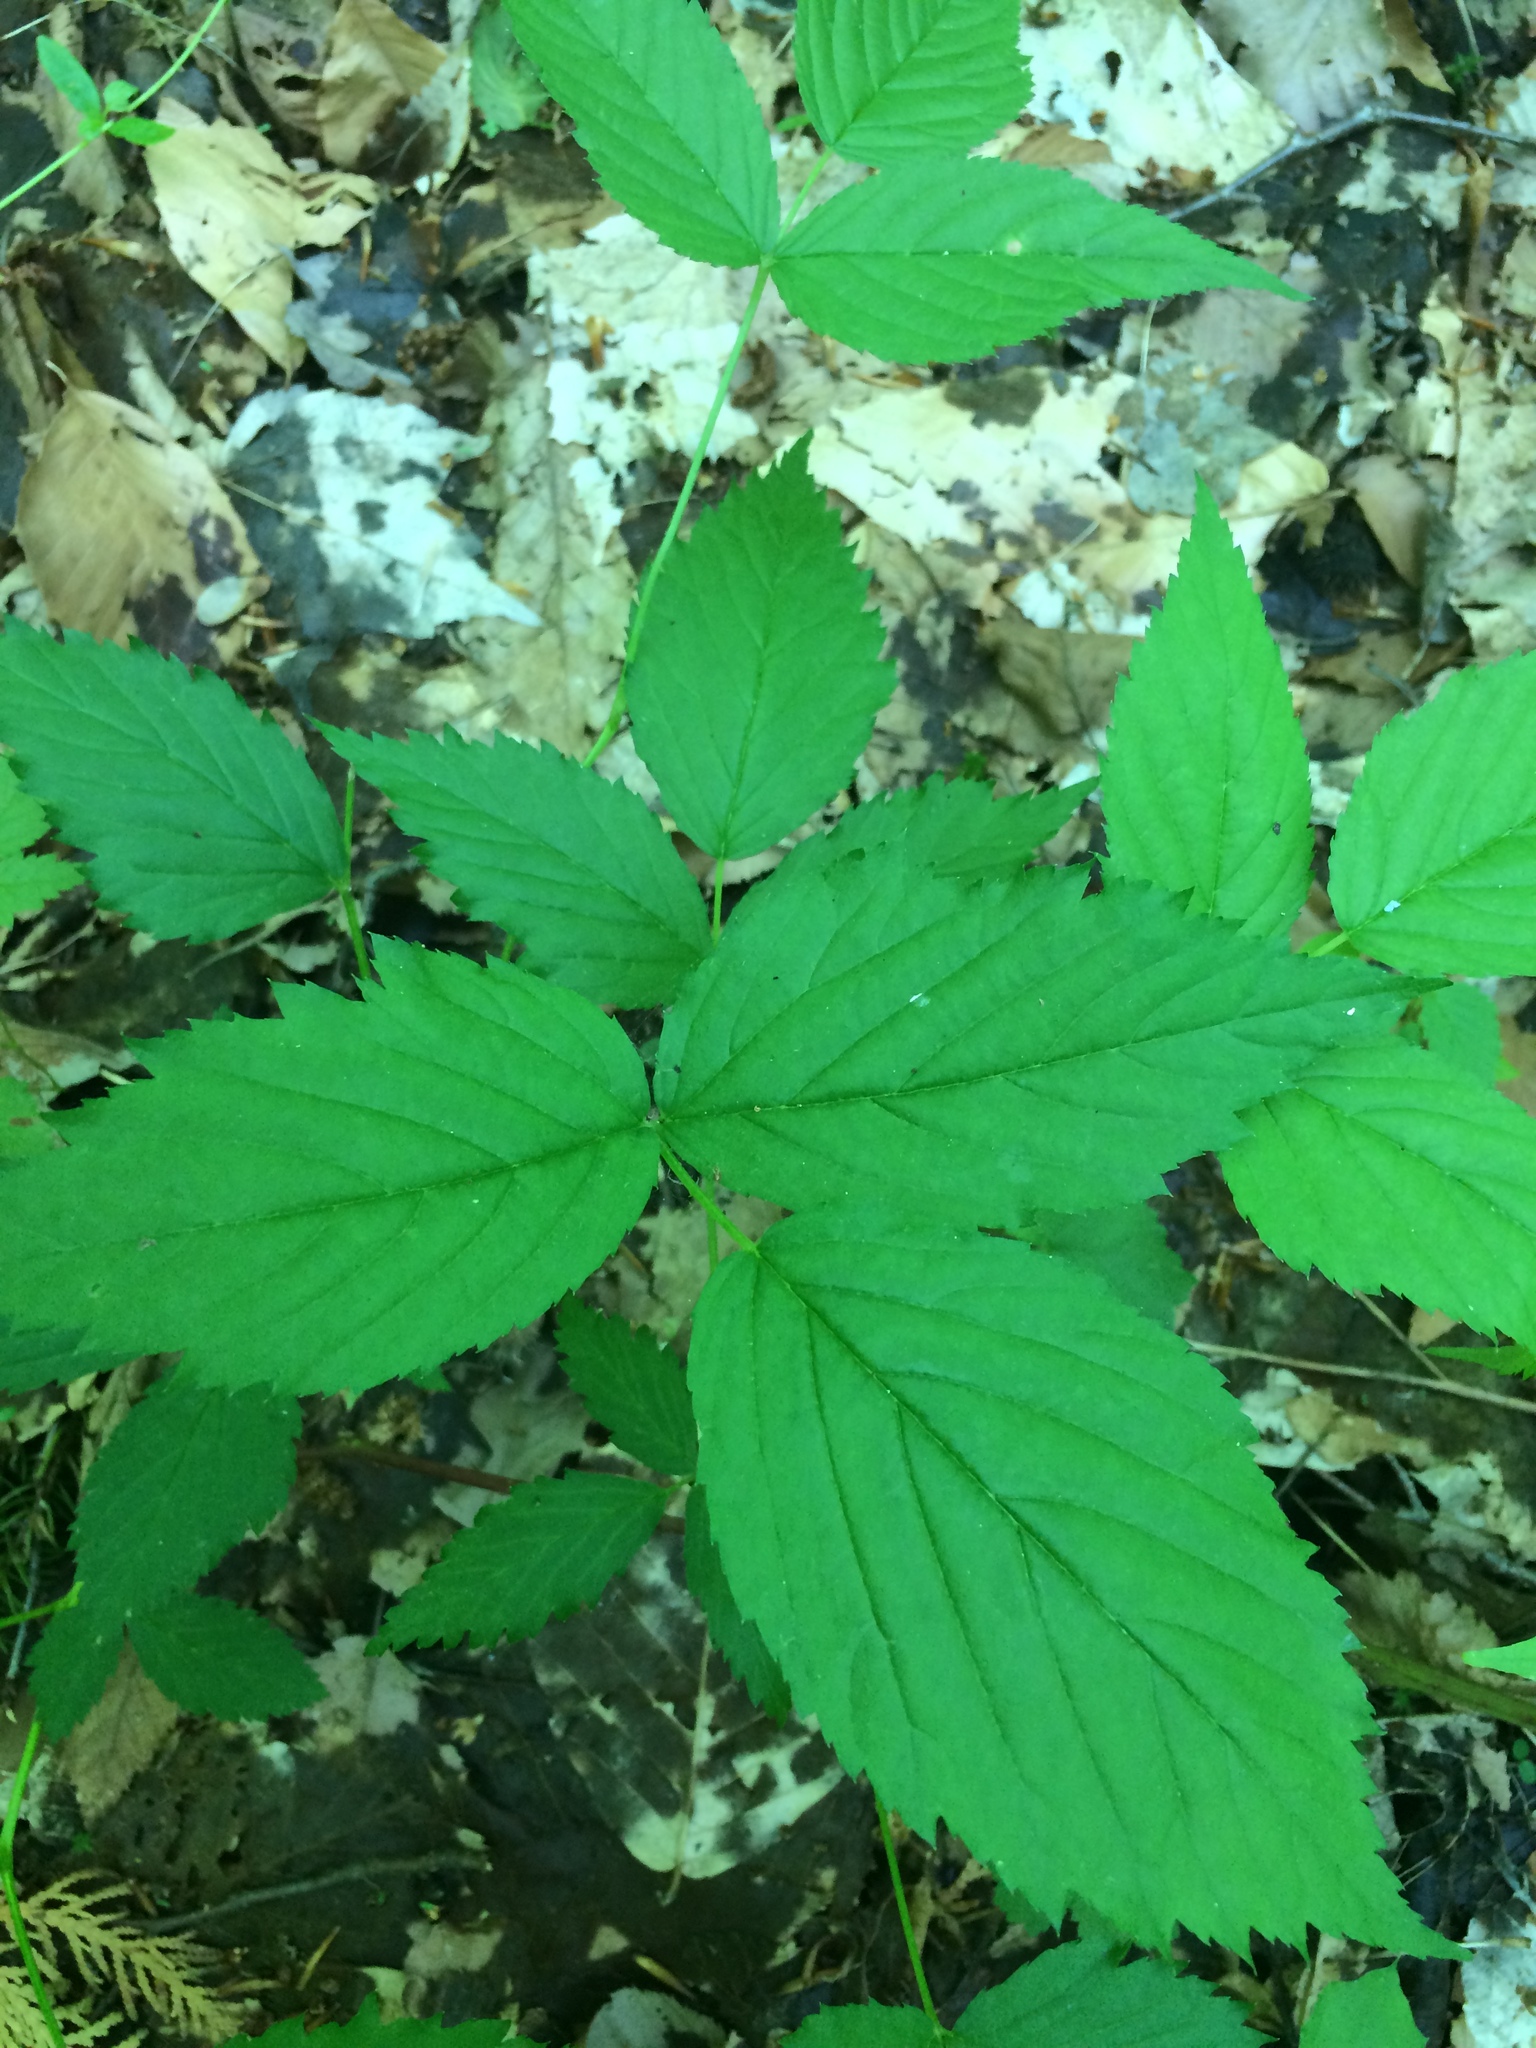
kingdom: Plantae
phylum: Tracheophyta
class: Magnoliopsida
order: Rosales
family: Rosaceae
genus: Rubus
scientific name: Rubus canadensis
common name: Smooth blackberry
